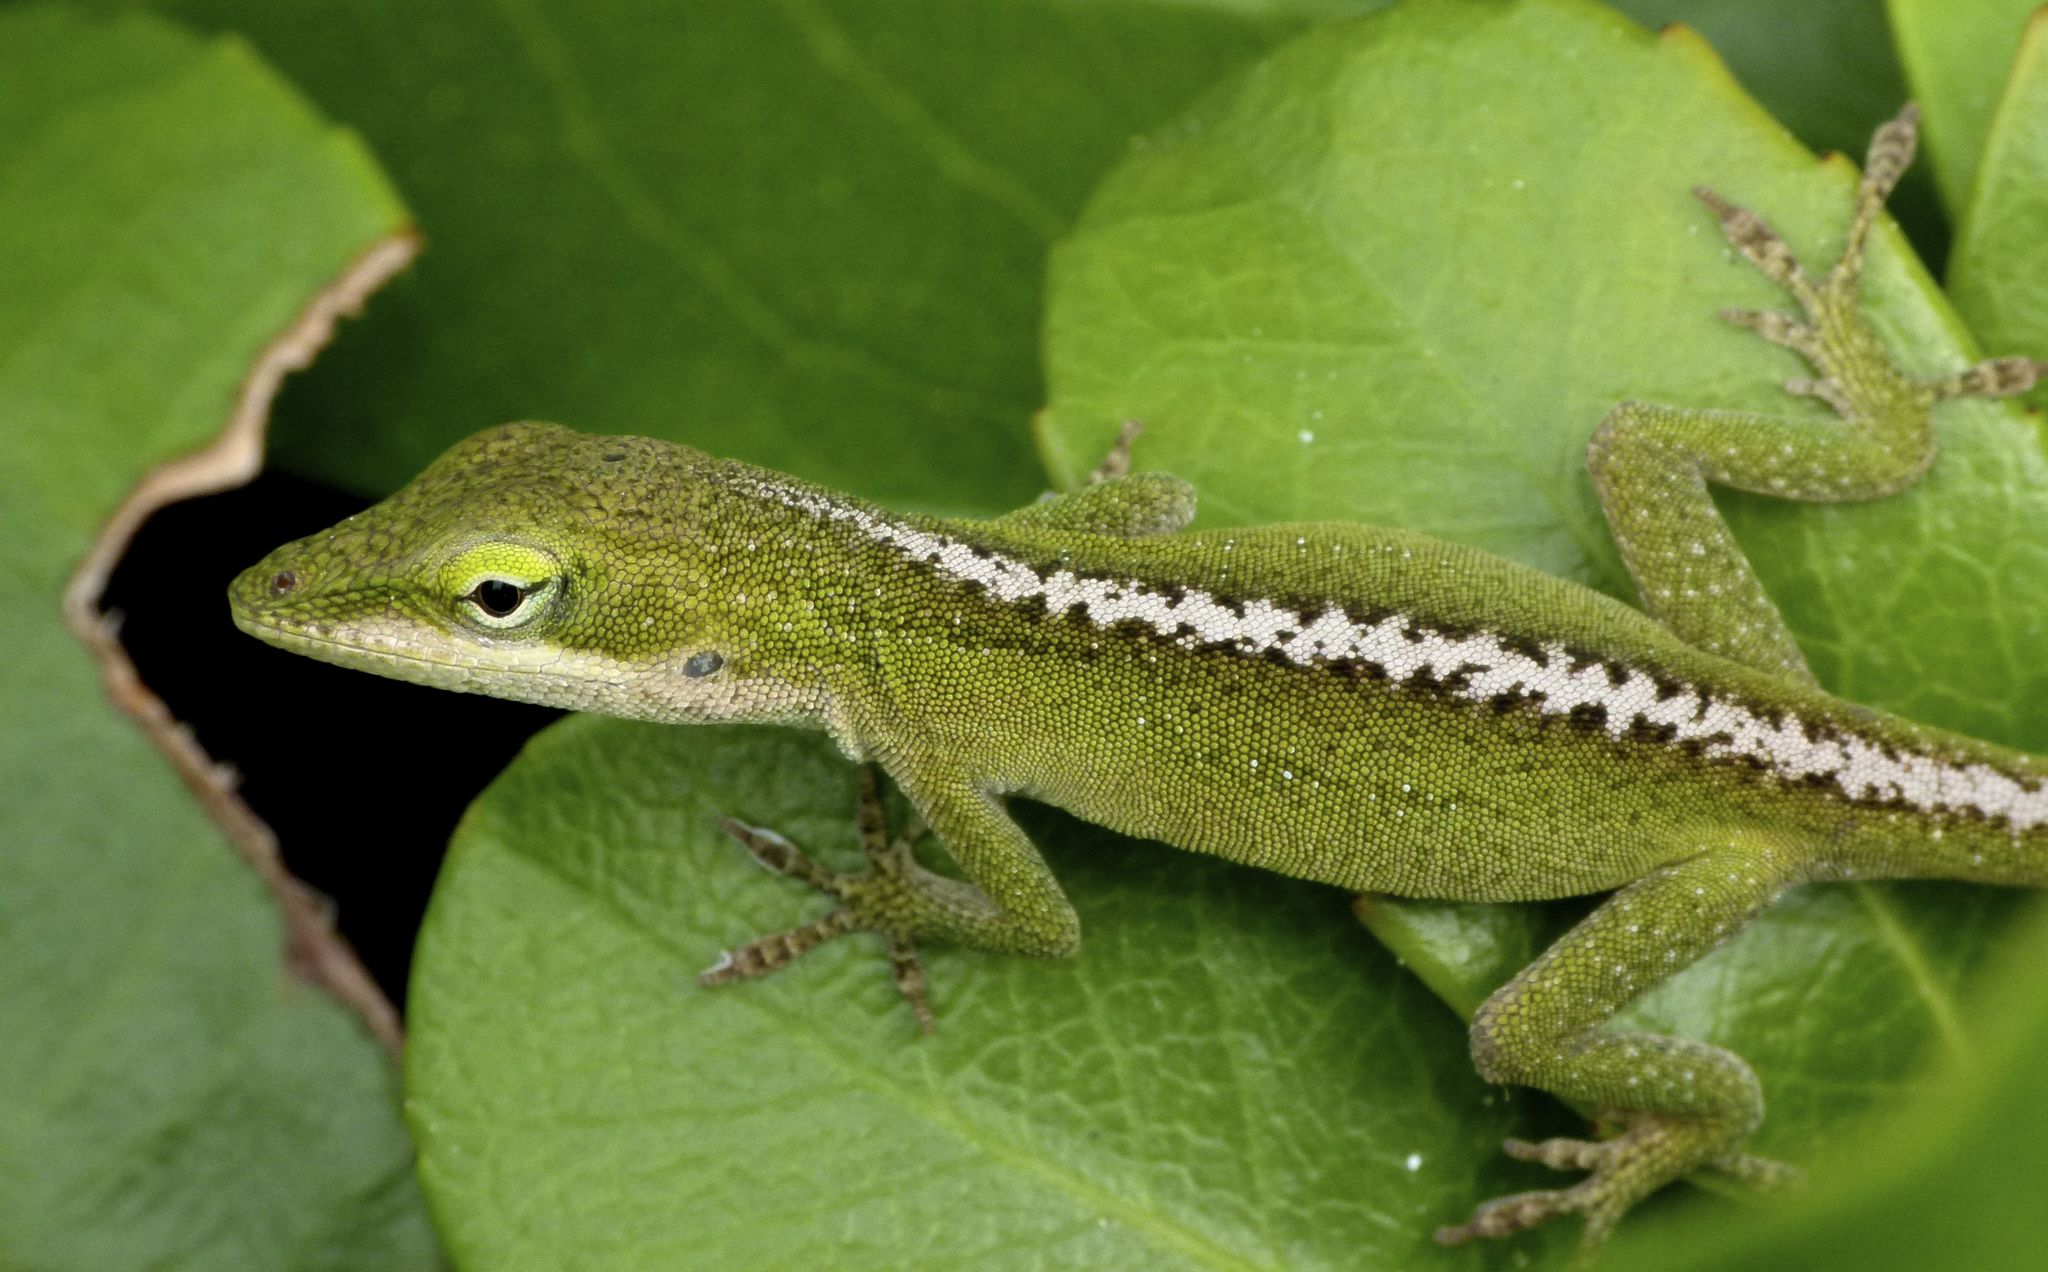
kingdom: Animalia
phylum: Chordata
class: Squamata
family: Dactyloidae
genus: Anolis
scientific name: Anolis carolinensis
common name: Green anole
